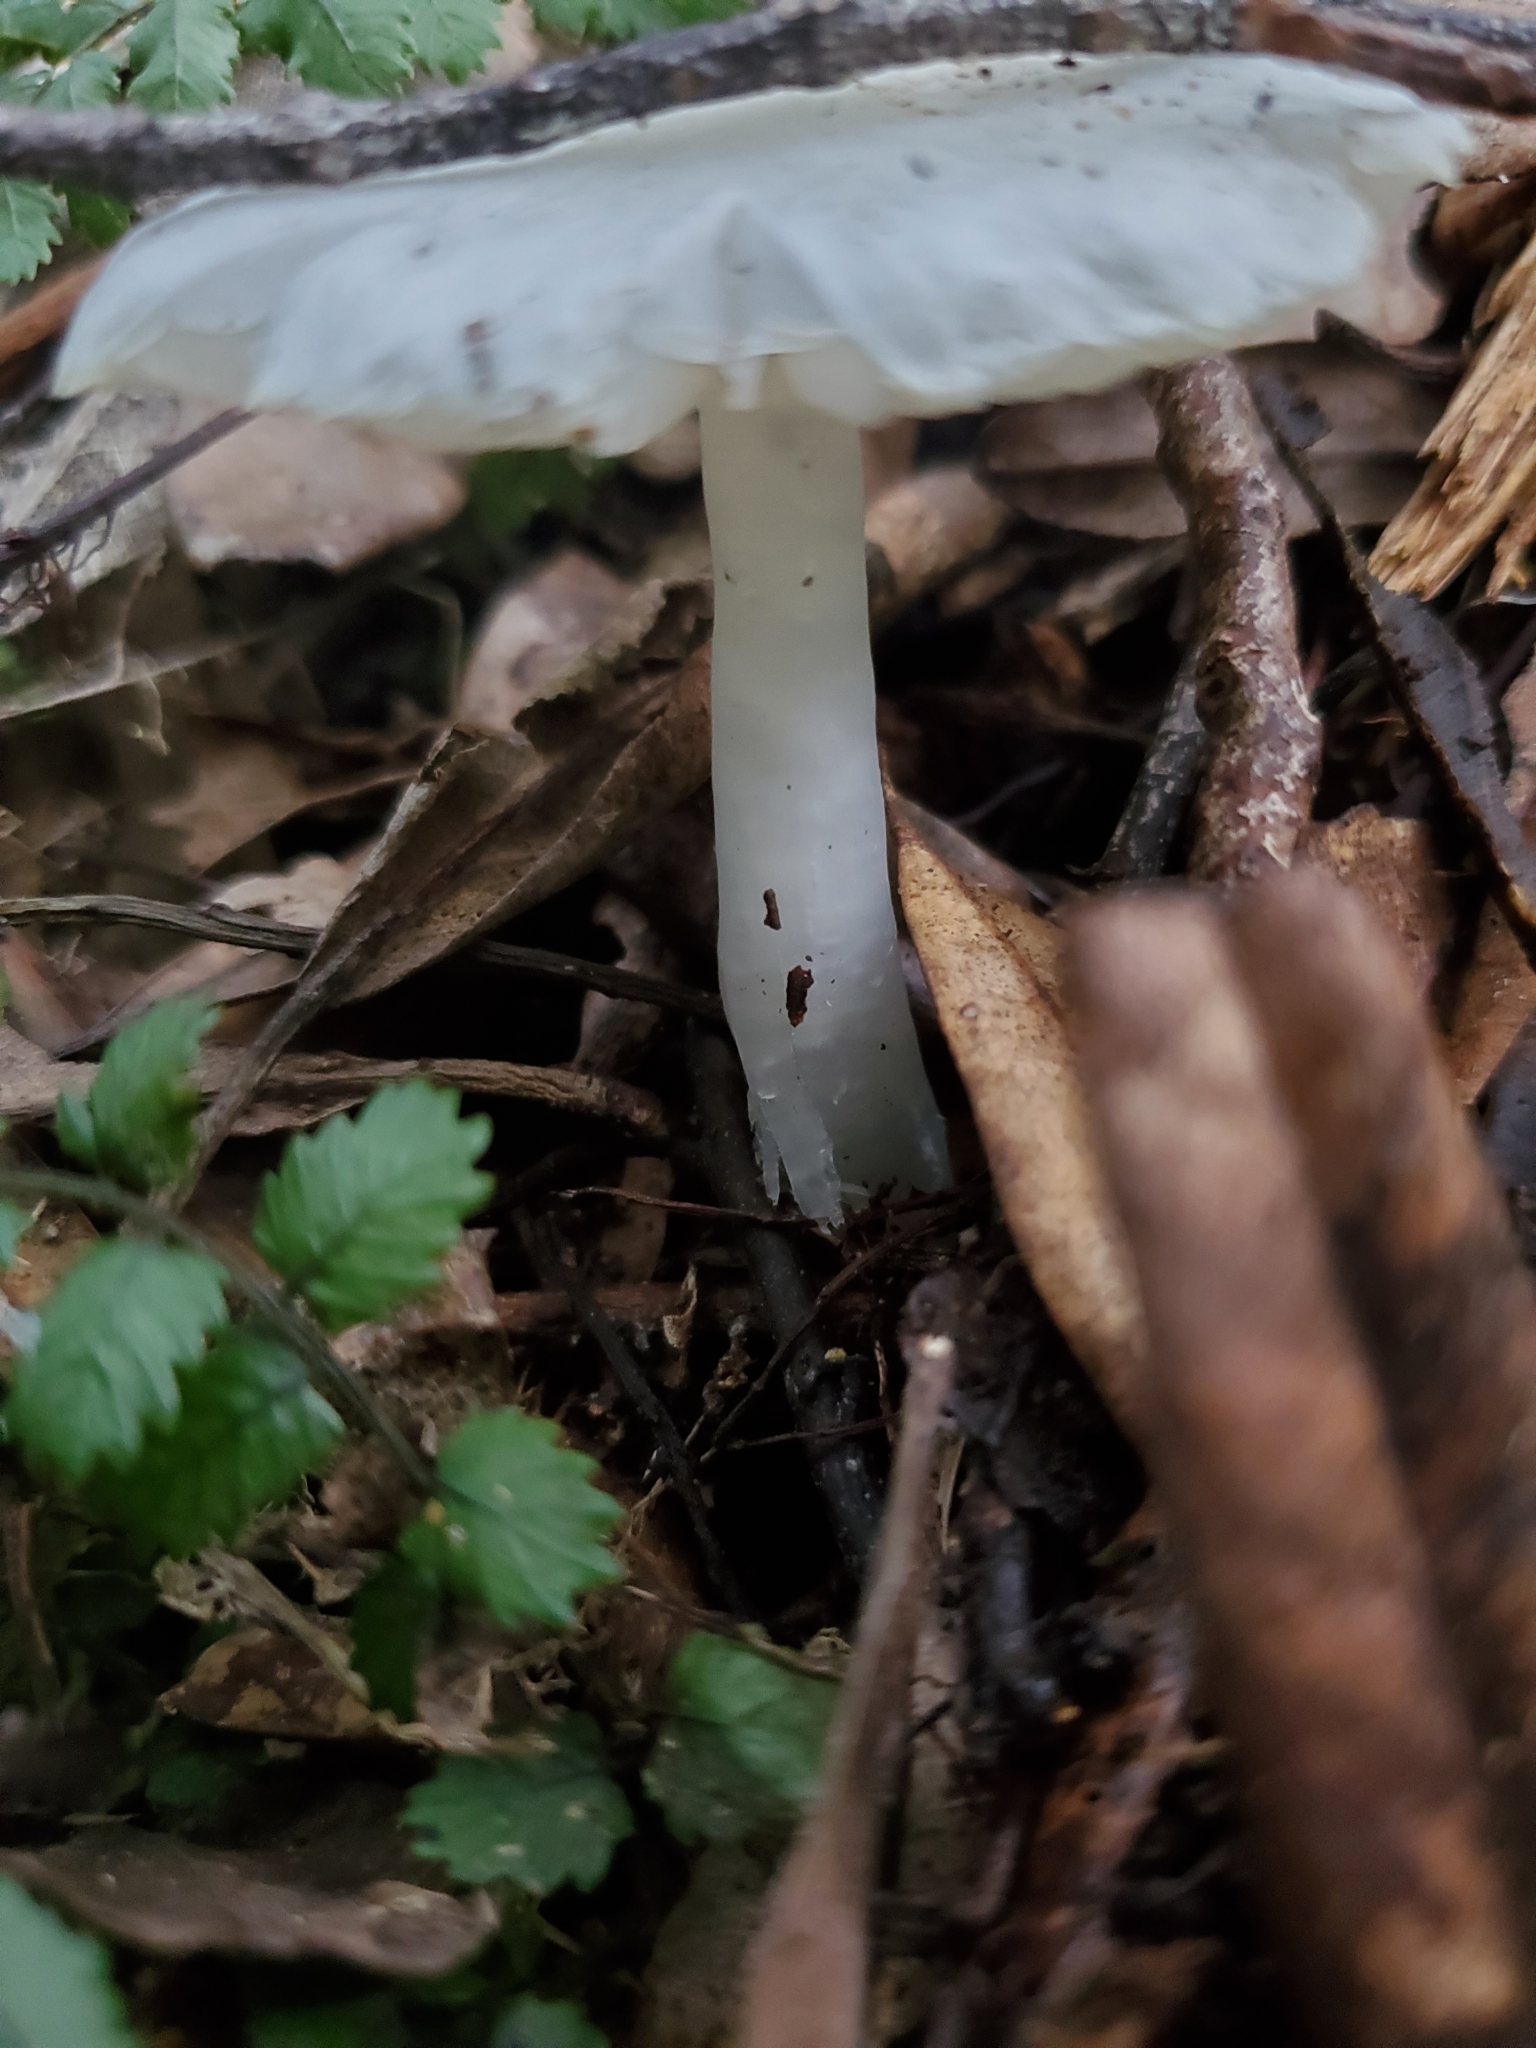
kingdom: Fungi
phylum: Basidiomycota
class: Agaricomycetes
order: Agaricales
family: Hygrophoraceae
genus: Humidicutis
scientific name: Humidicutis mavis
